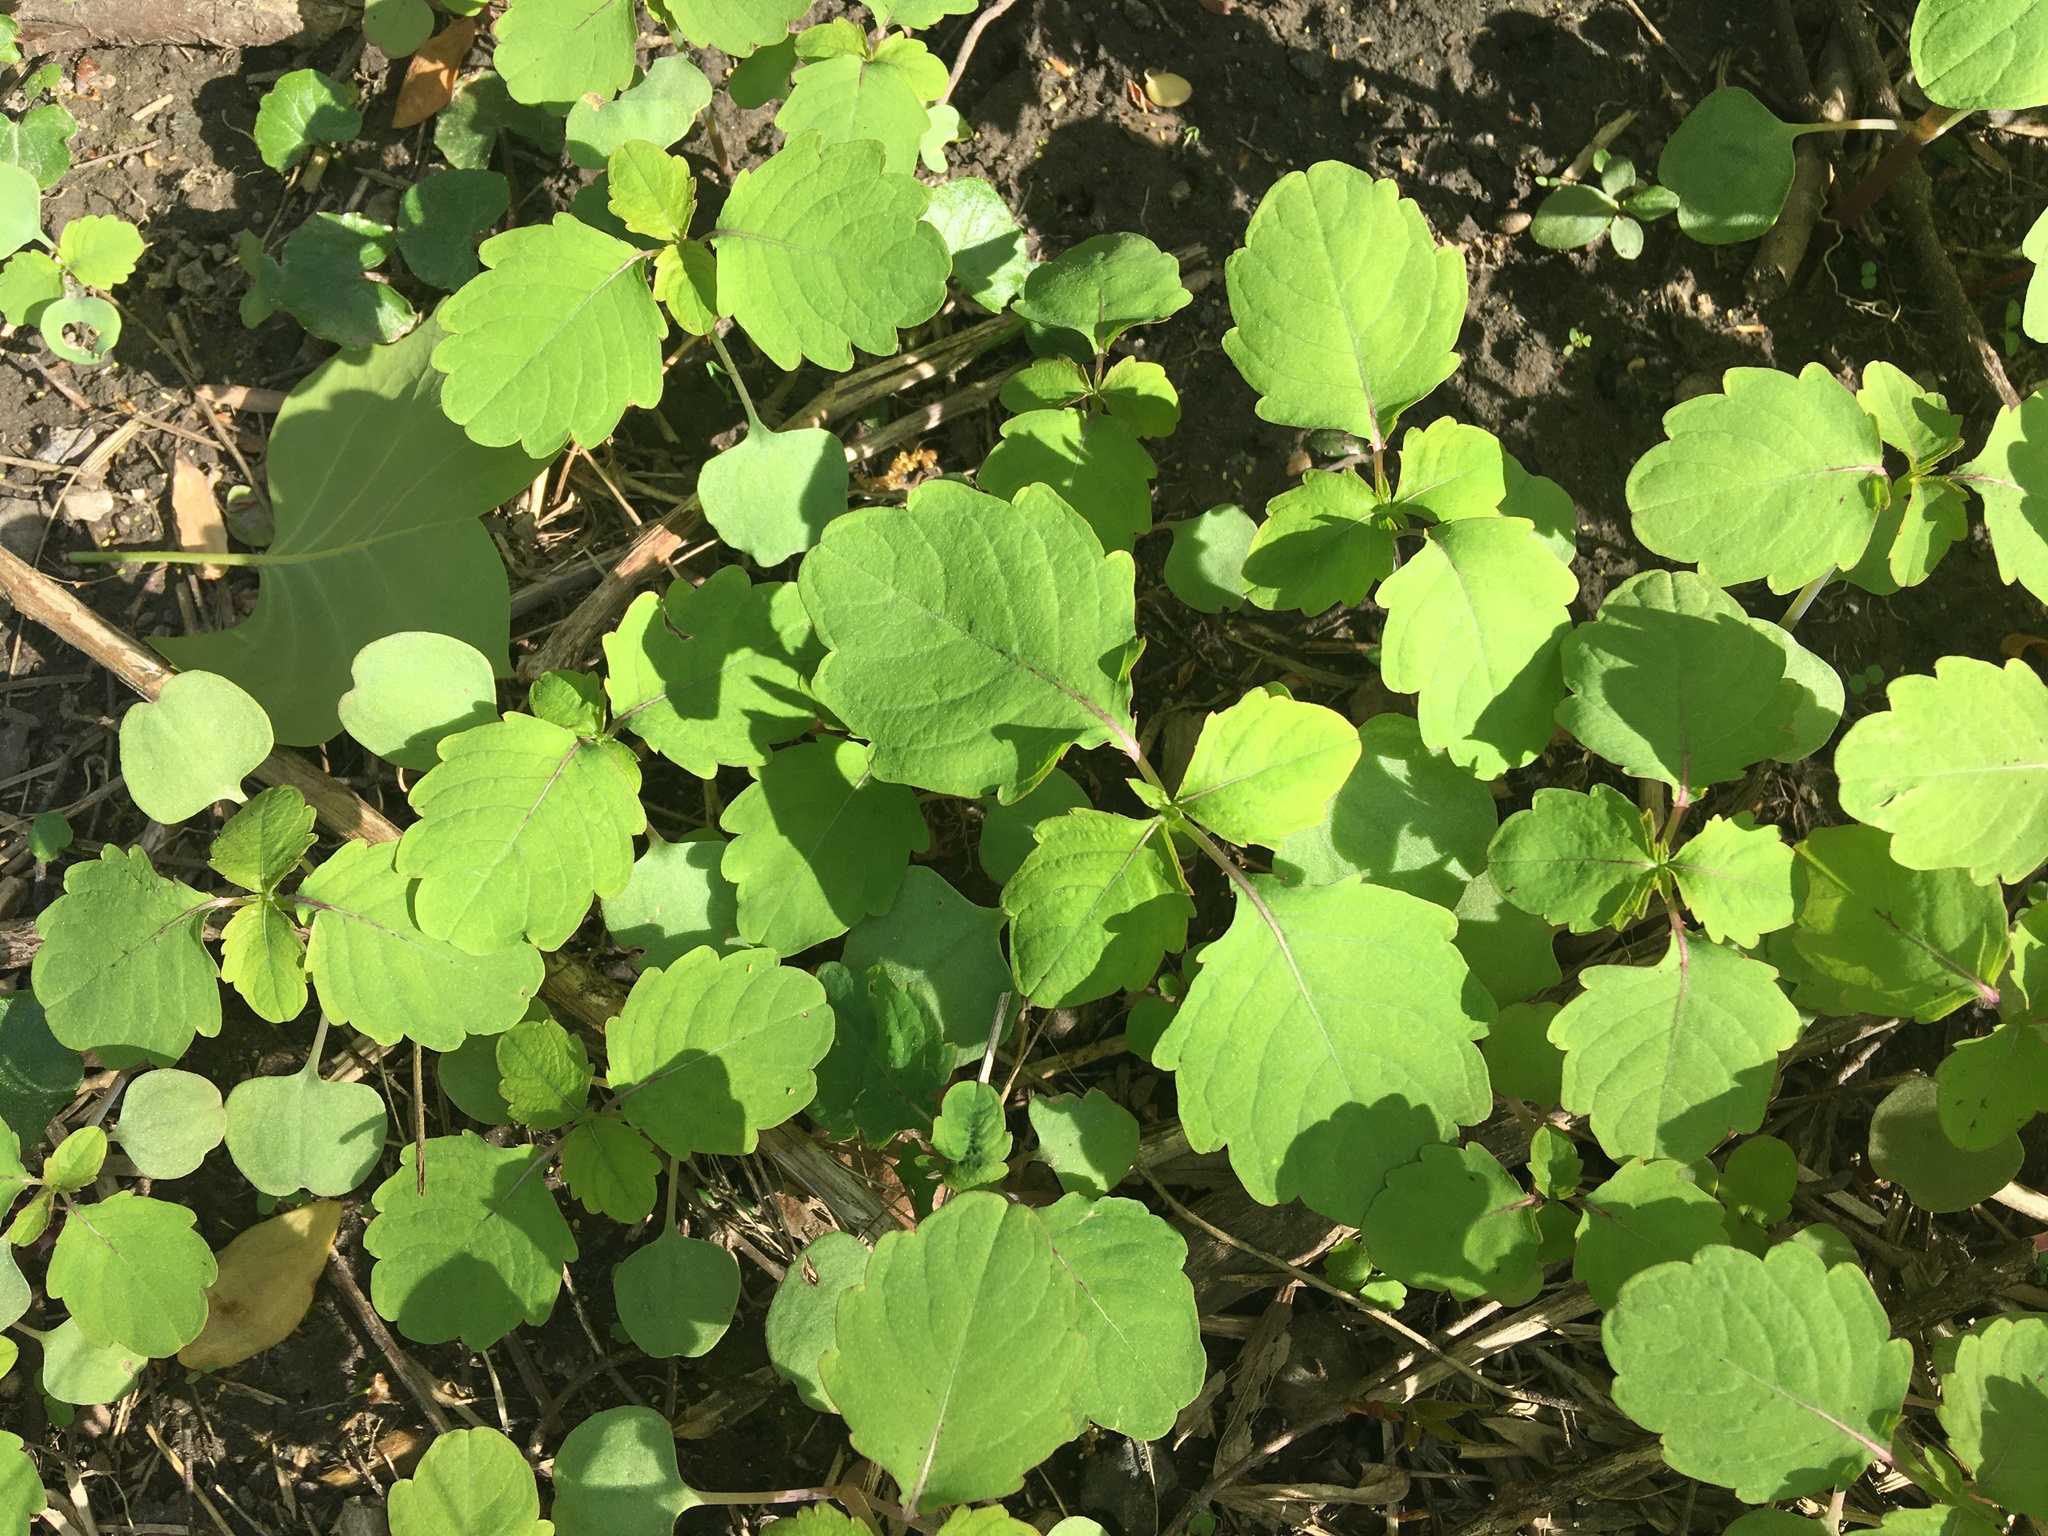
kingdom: Plantae
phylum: Tracheophyta
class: Magnoliopsida
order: Ericales
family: Balsaminaceae
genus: Impatiens
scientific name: Impatiens capensis
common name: Orange balsam
